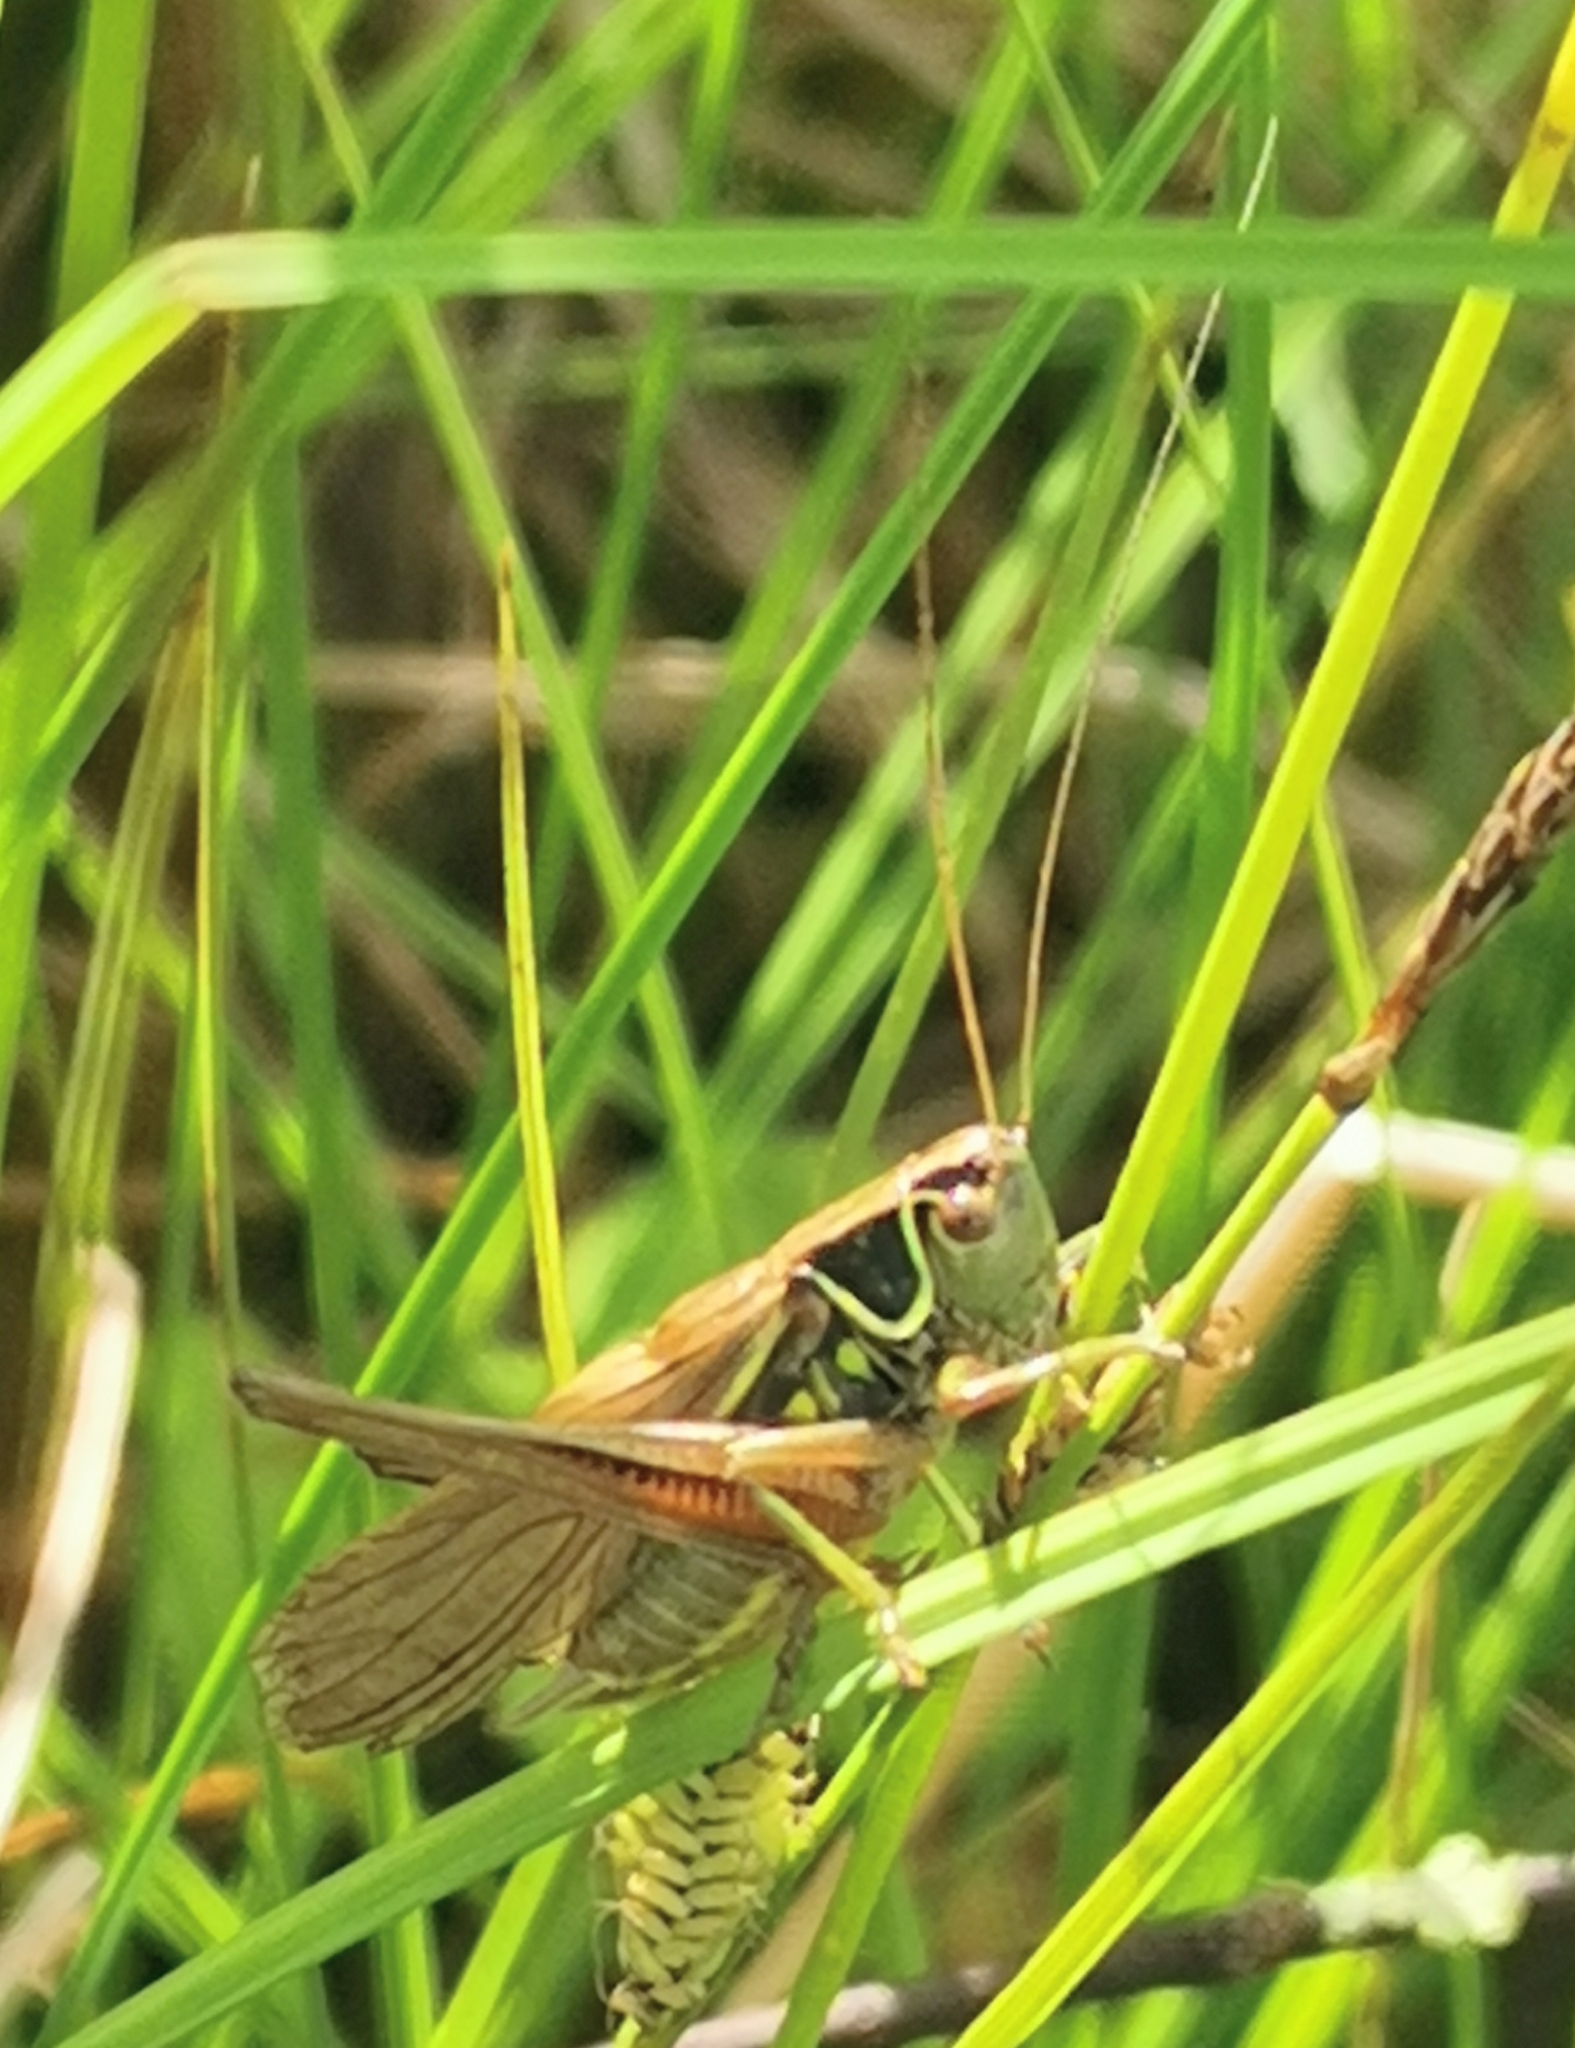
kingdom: Animalia
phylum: Arthropoda
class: Insecta
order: Orthoptera
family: Tettigoniidae
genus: Roeseliana
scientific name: Roeseliana roeselii
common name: Roesel's bush cricket
